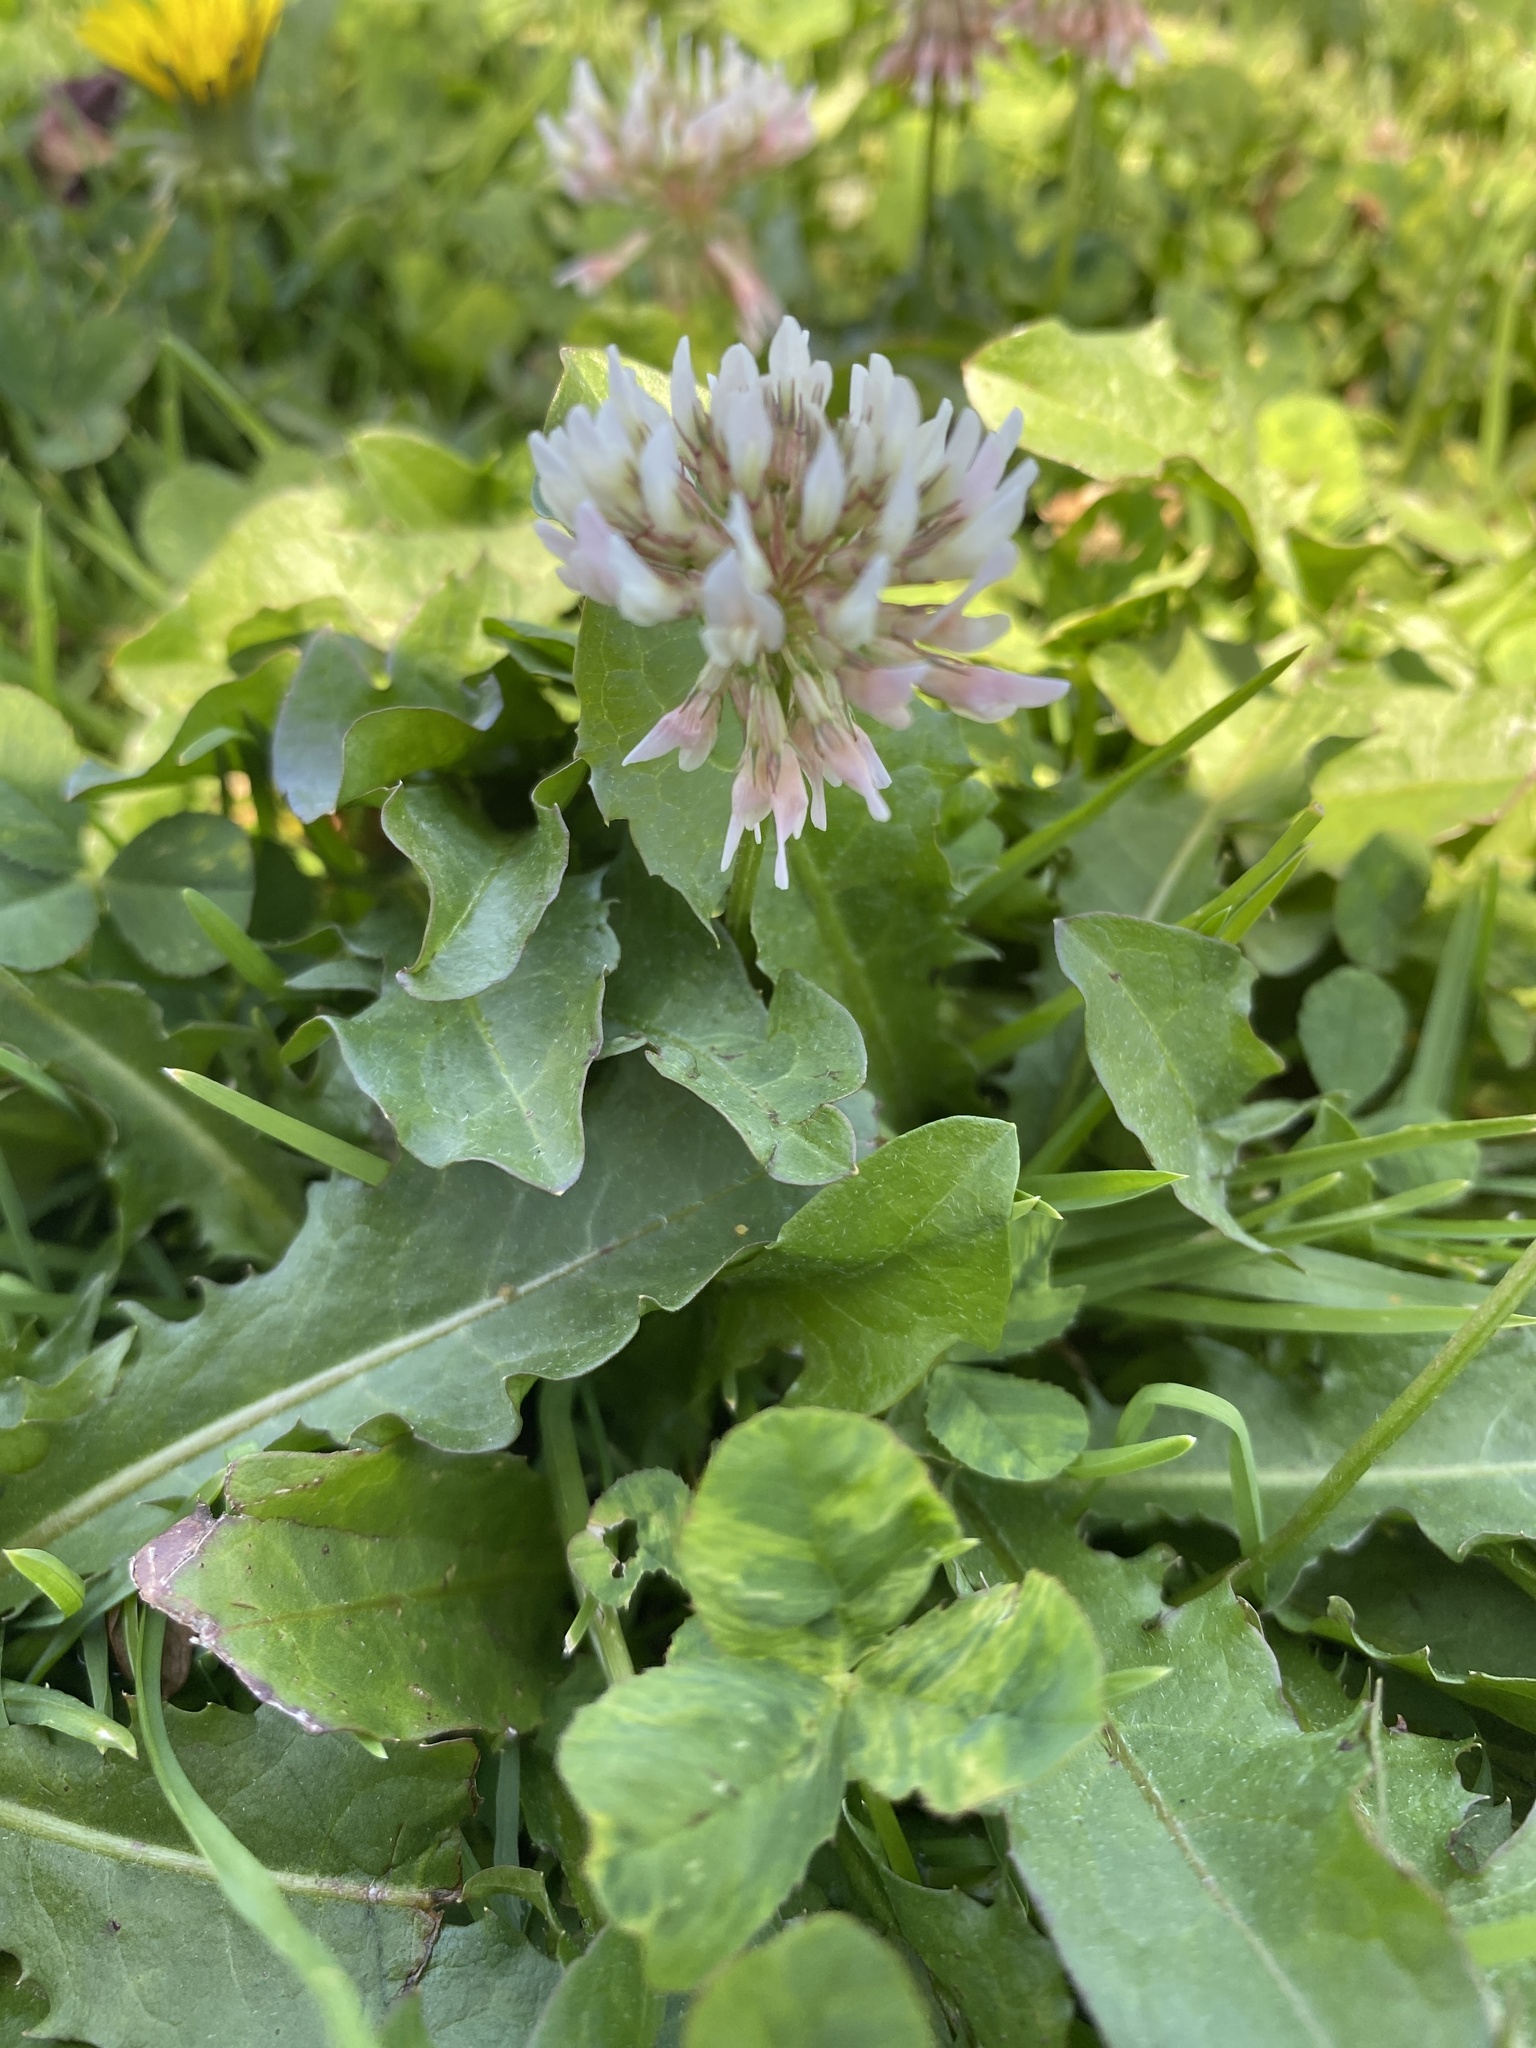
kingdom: Plantae
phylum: Tracheophyta
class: Magnoliopsida
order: Fabales
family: Fabaceae
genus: Trifolium
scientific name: Trifolium repens
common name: White clover
